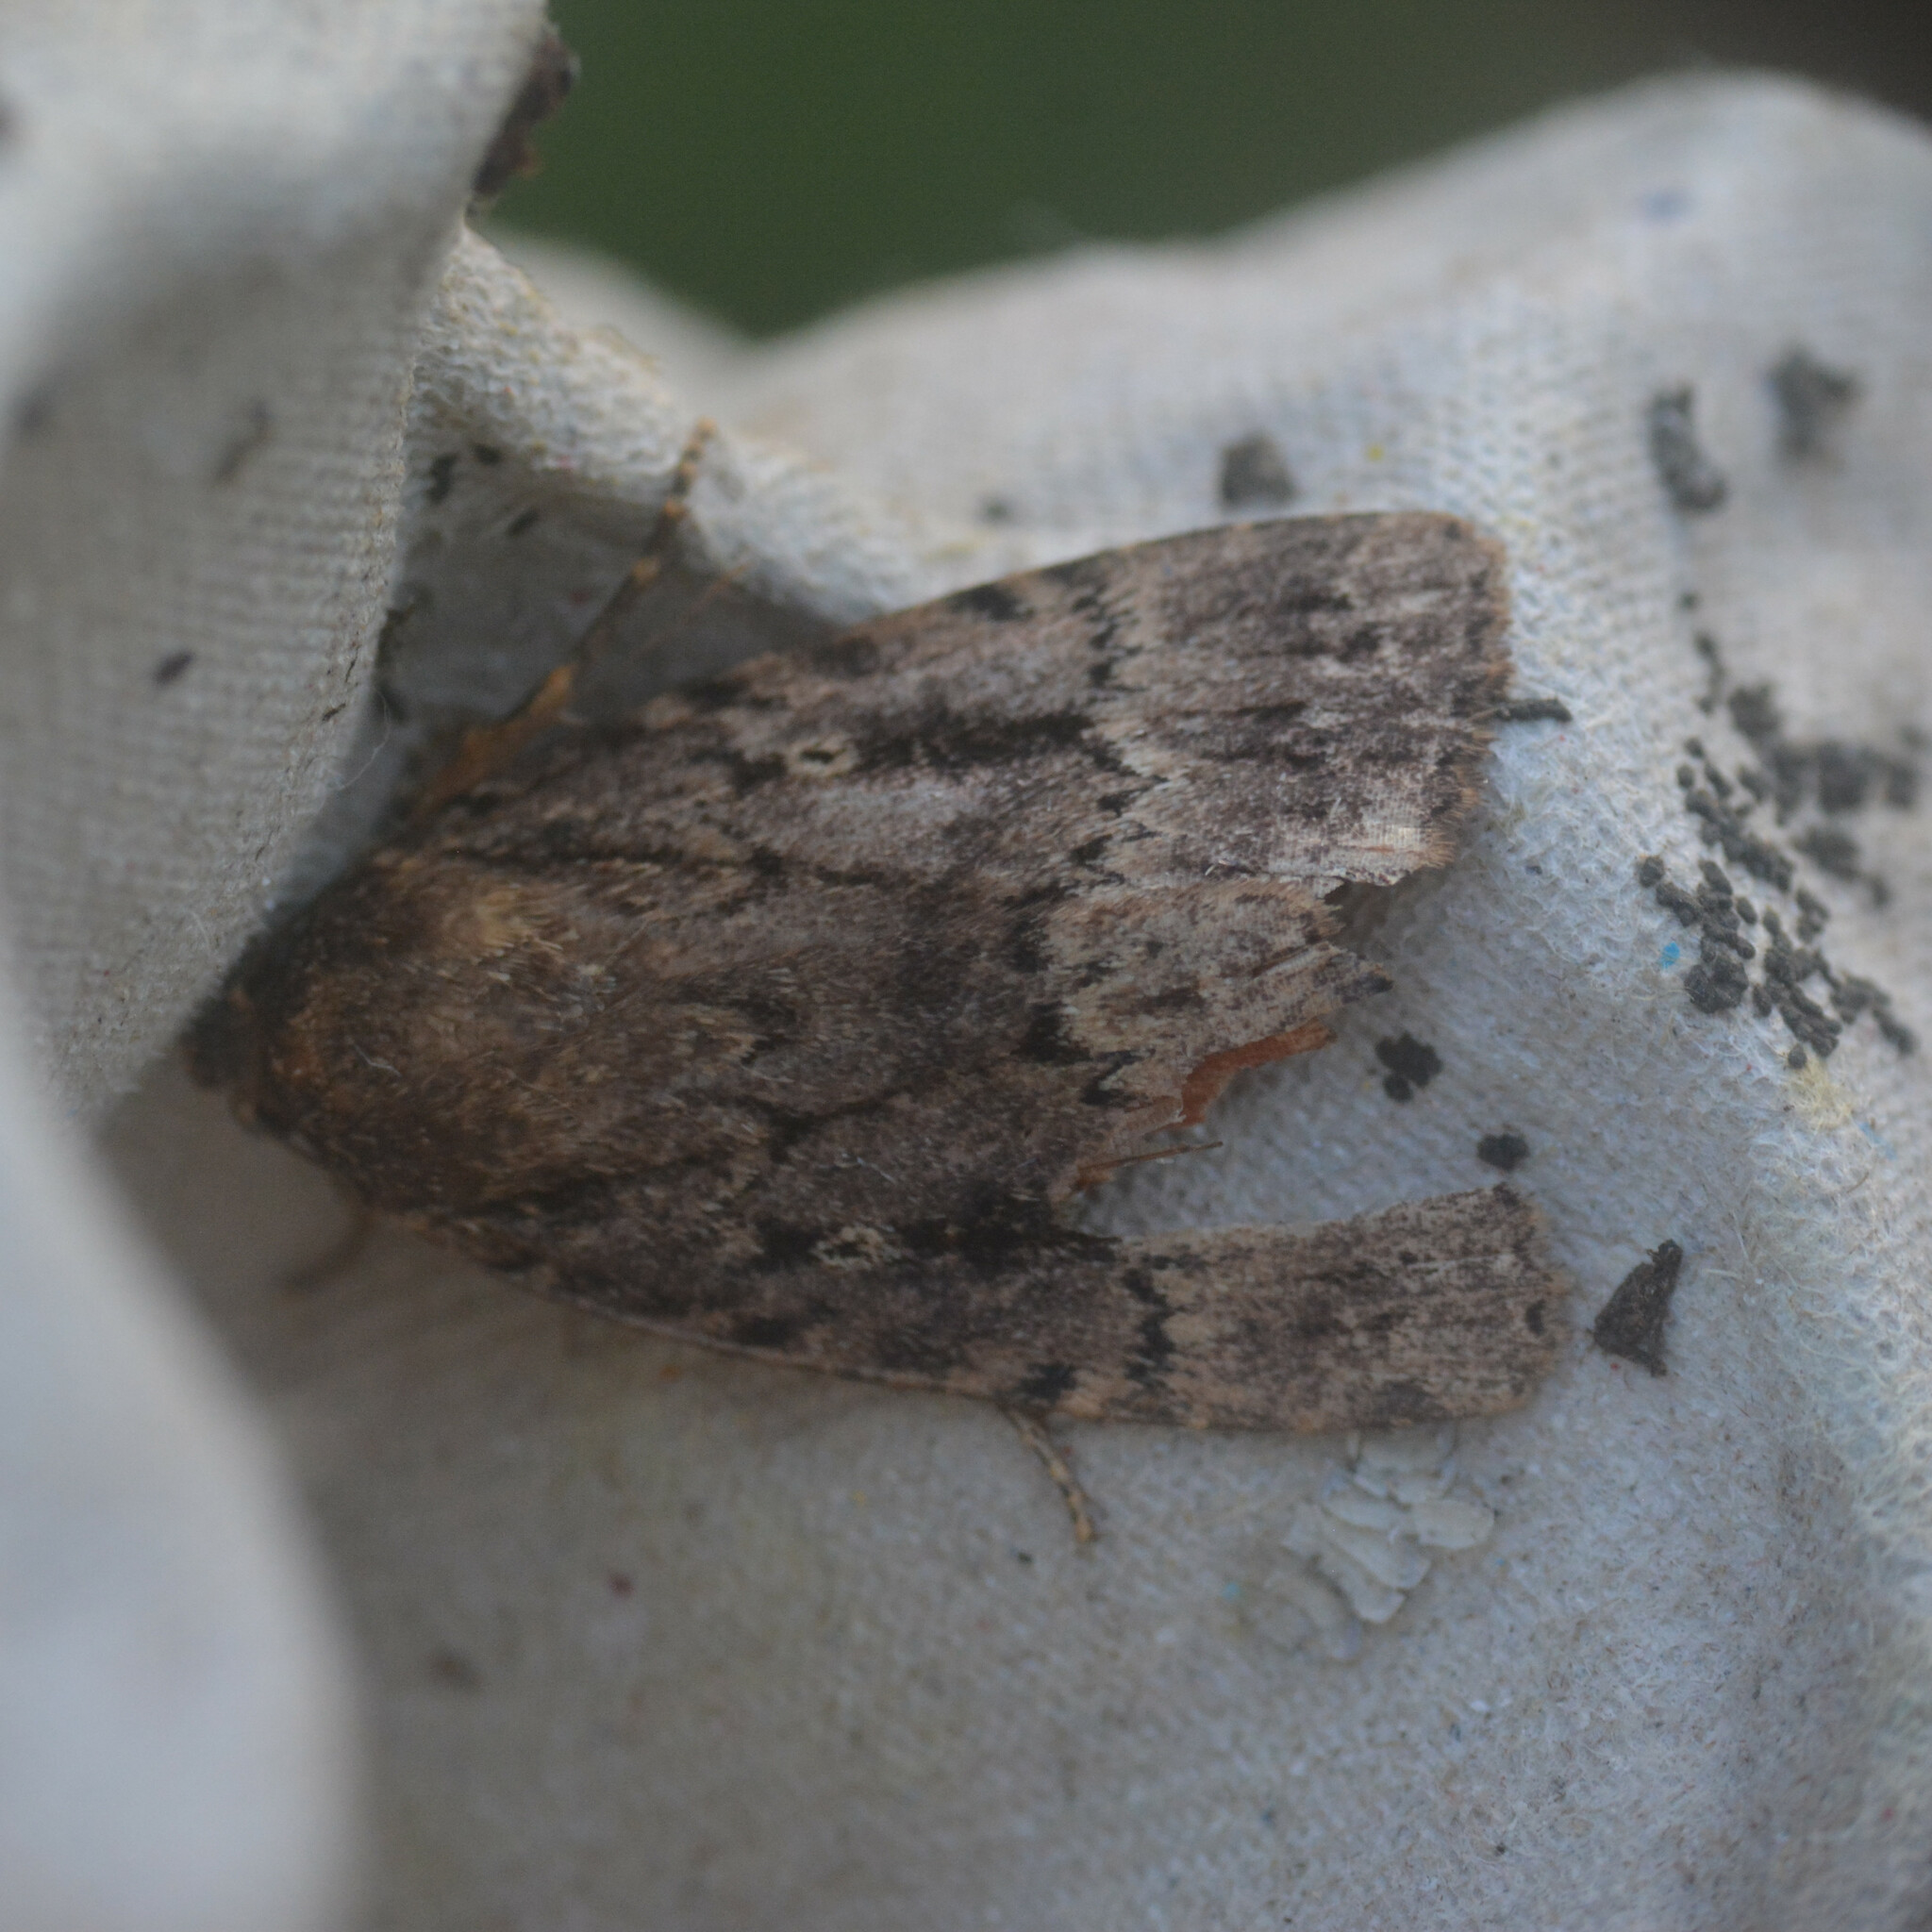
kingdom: Animalia
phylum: Arthropoda
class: Insecta
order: Lepidoptera
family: Noctuidae
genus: Amphipyra
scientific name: Amphipyra
